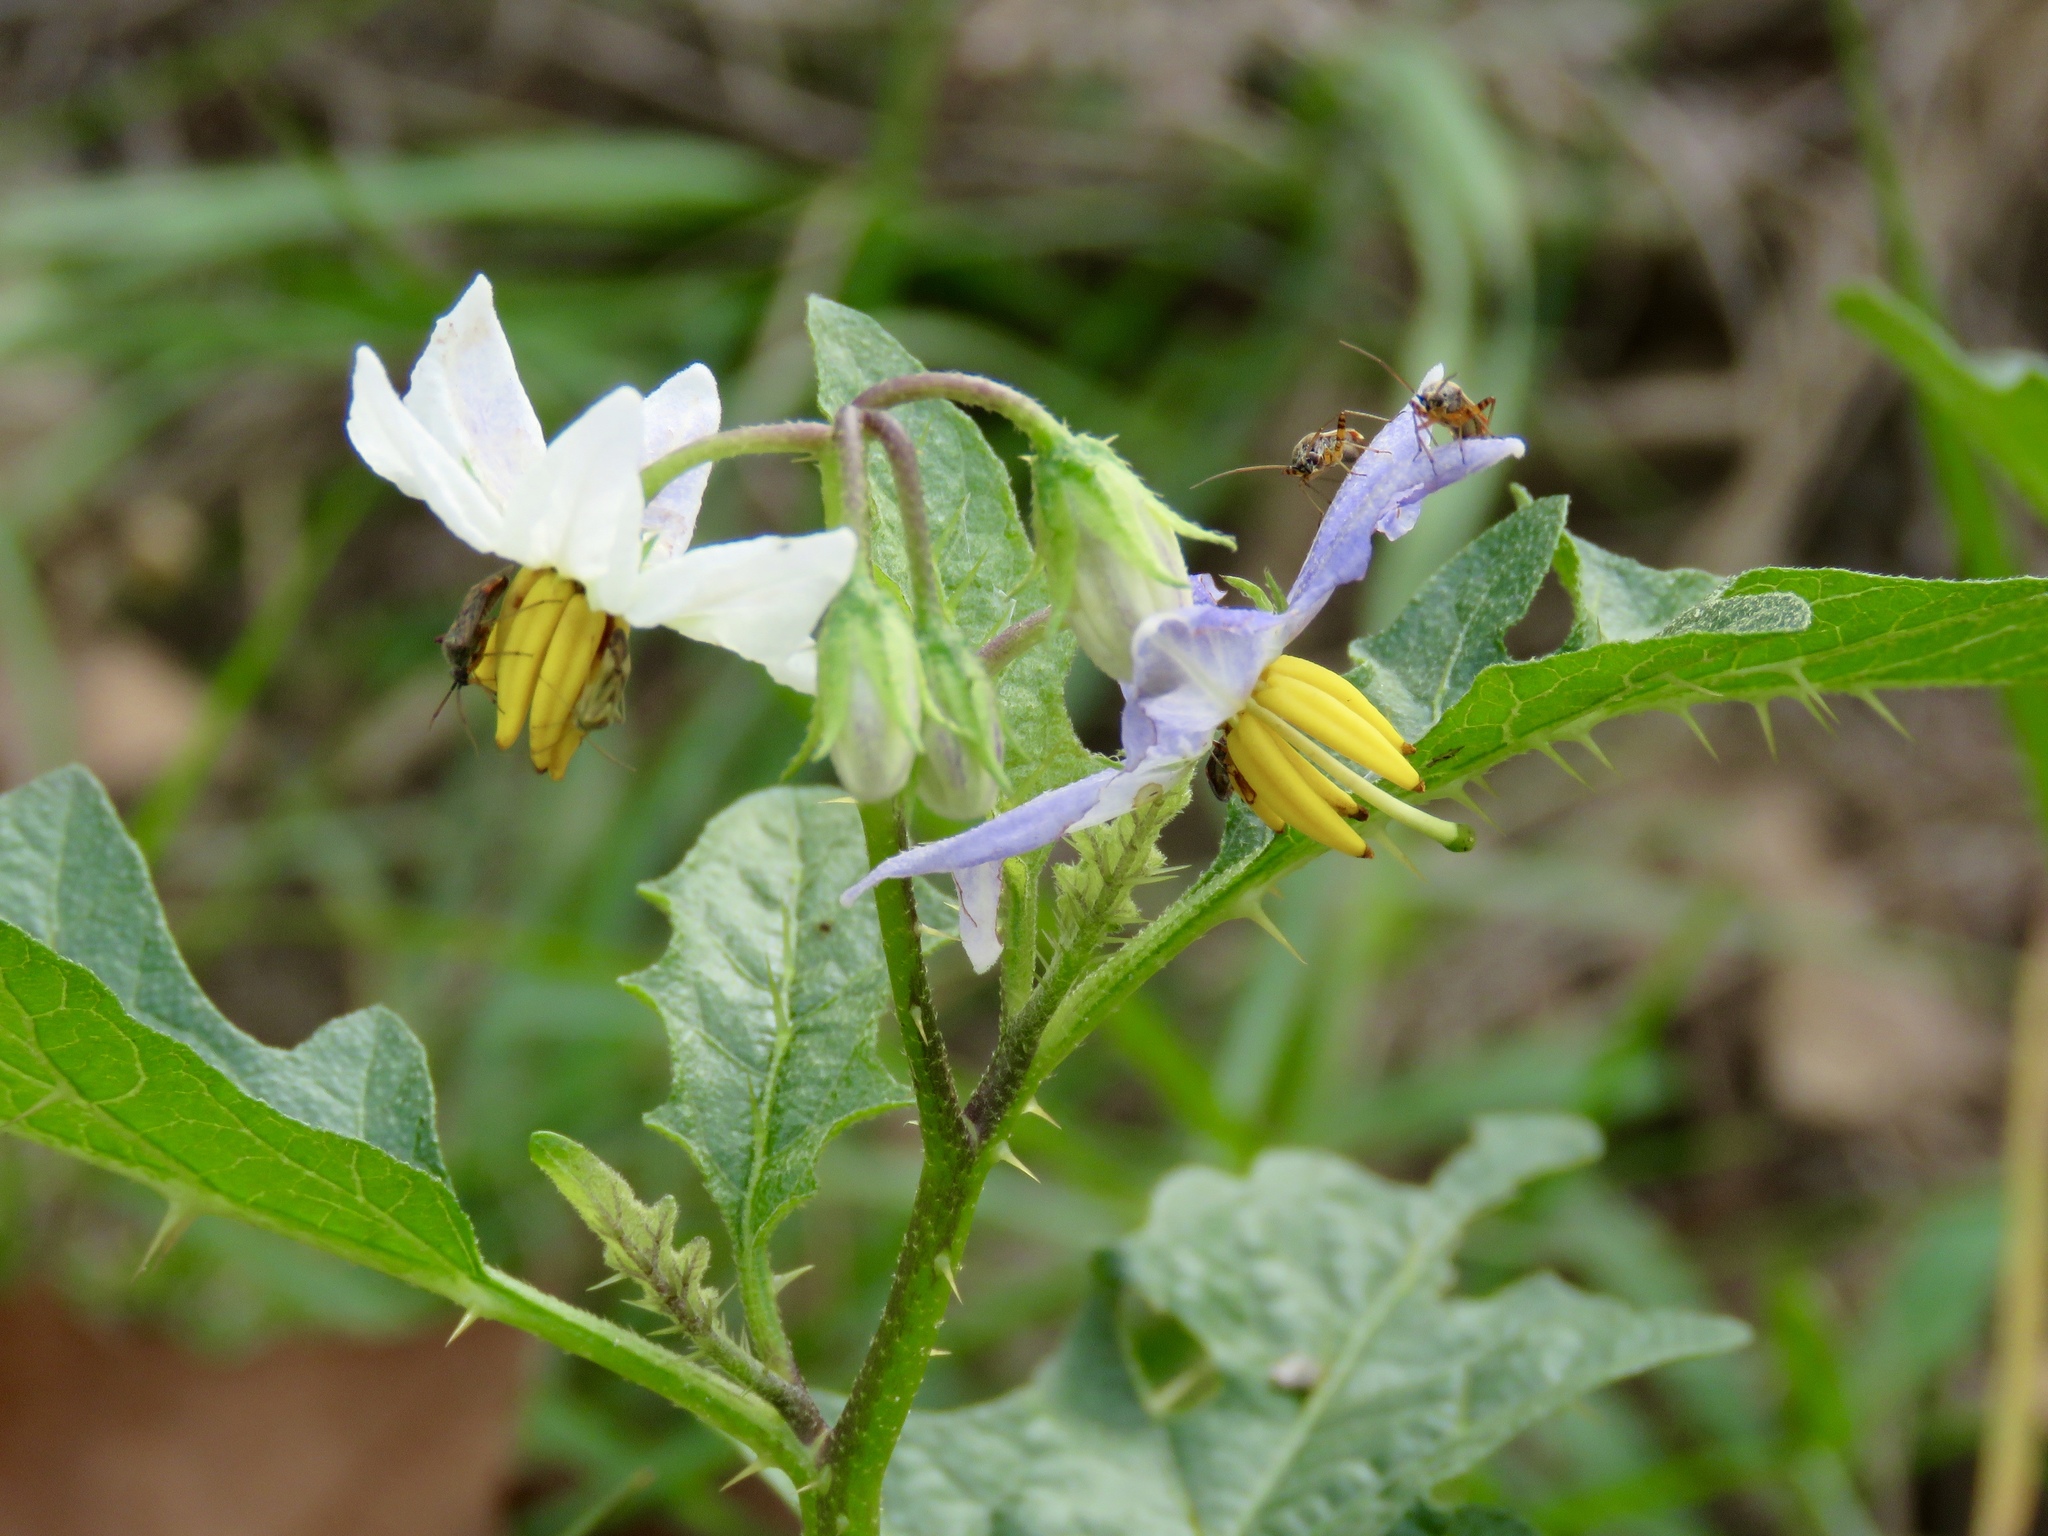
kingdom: Plantae
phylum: Tracheophyta
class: Magnoliopsida
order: Solanales
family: Solanaceae
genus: Solanum
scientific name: Solanum carolinense
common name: Horse-nettle
